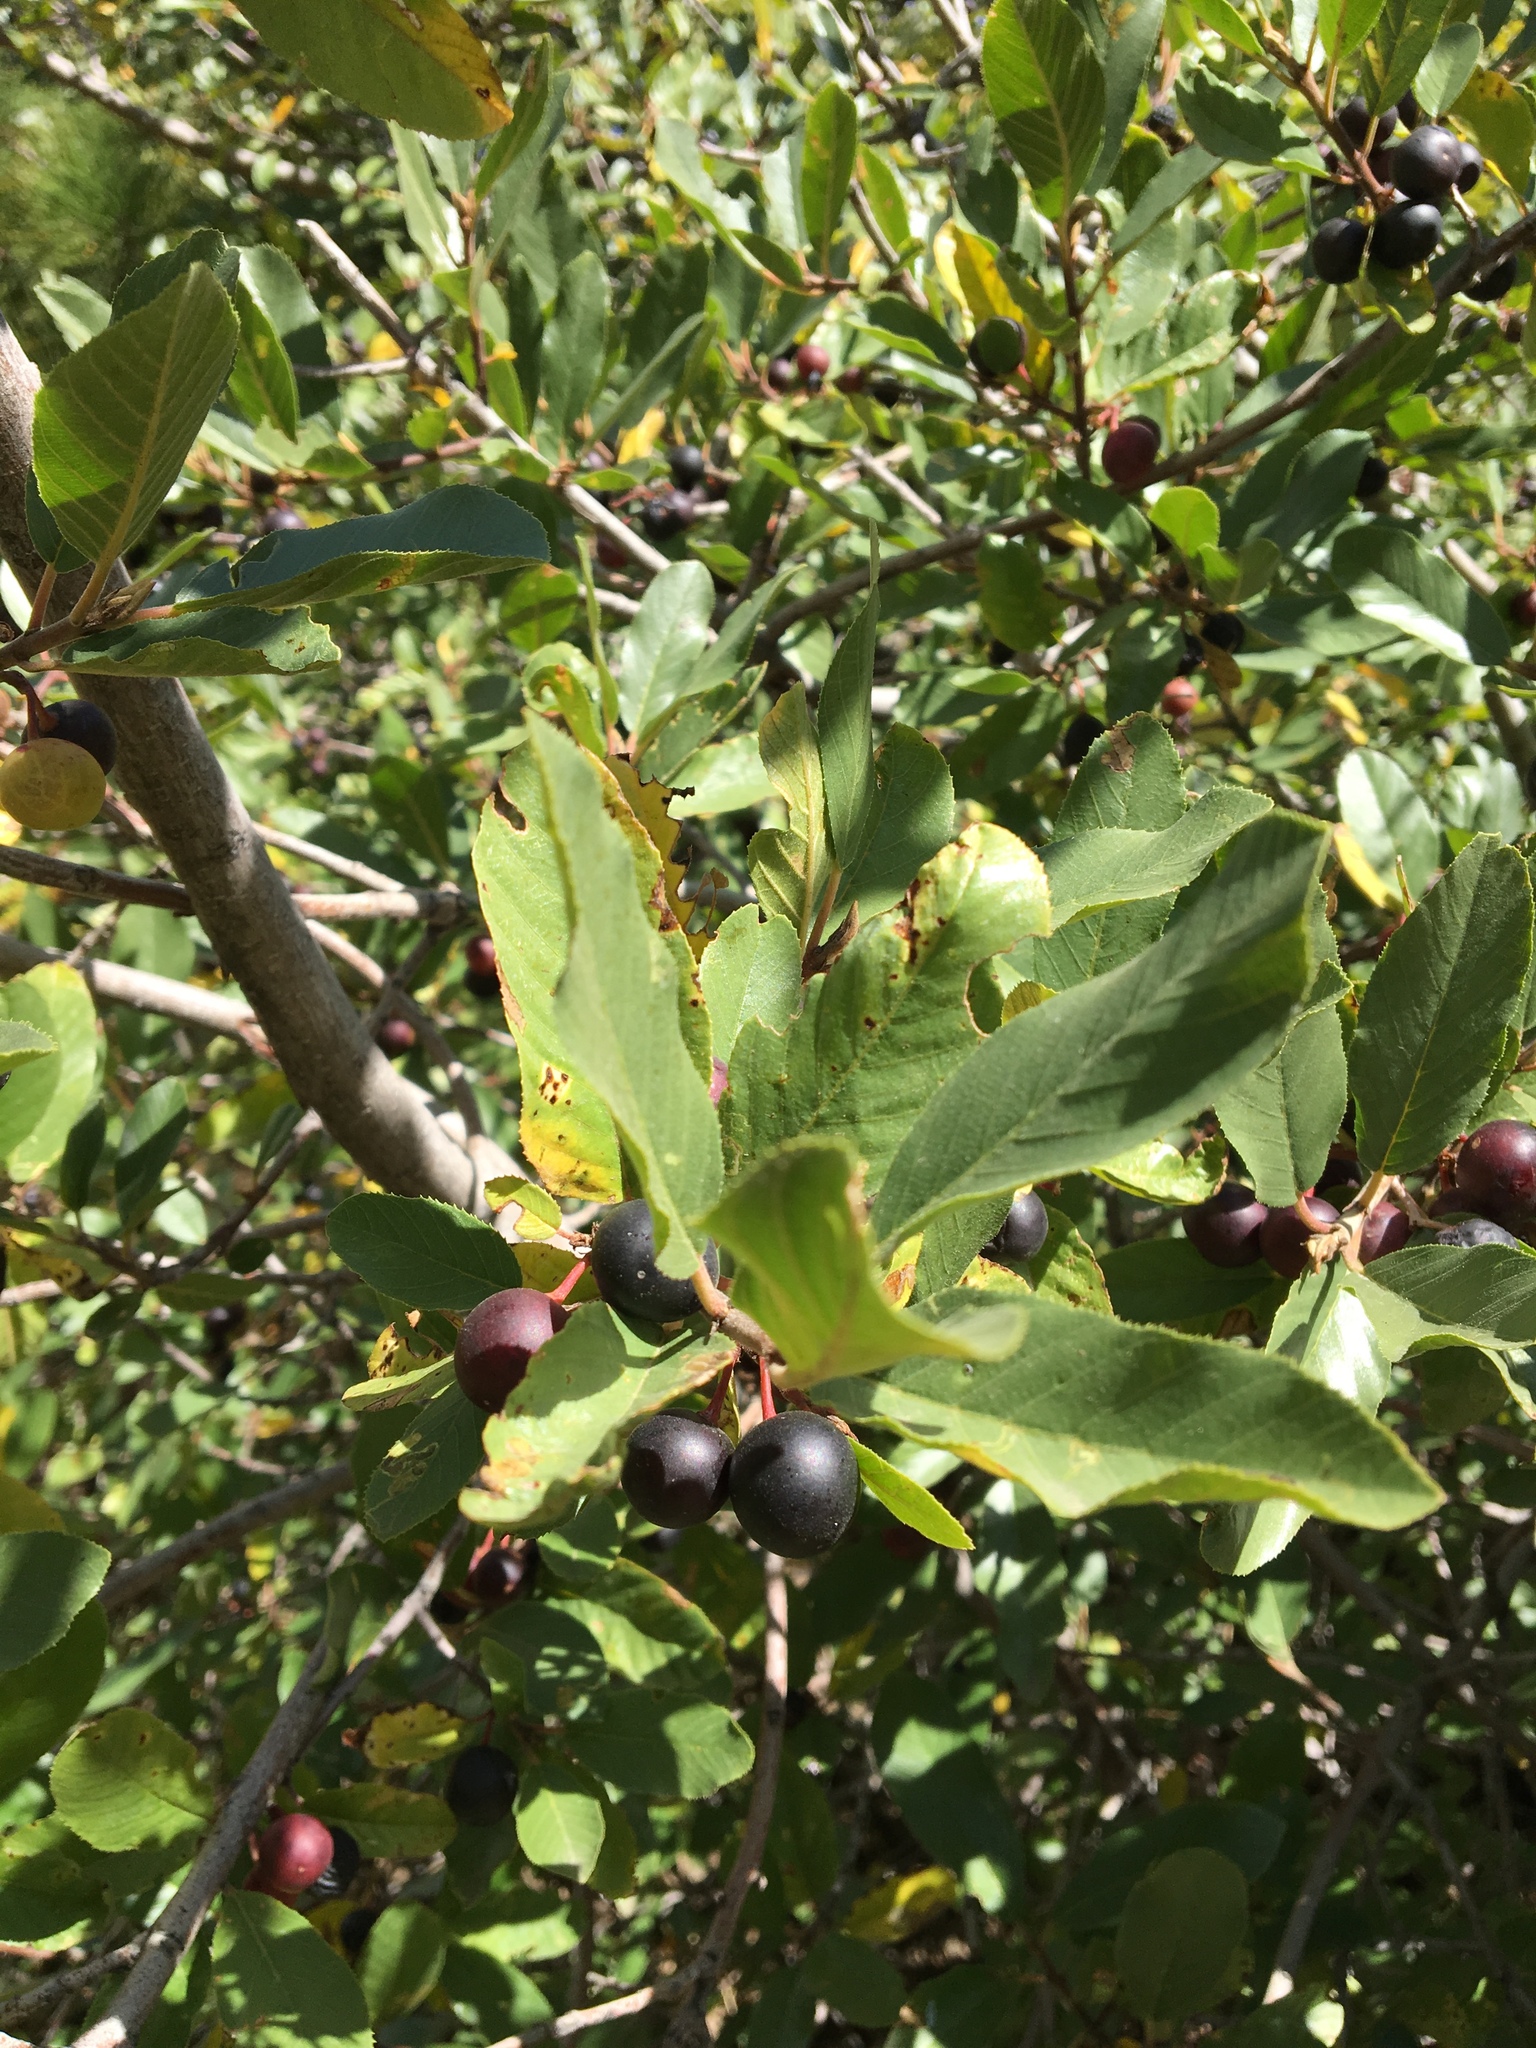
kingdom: Plantae
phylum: Tracheophyta
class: Magnoliopsida
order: Rosales
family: Rhamnaceae
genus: Frangula
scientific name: Frangula californica
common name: California buckthorn
